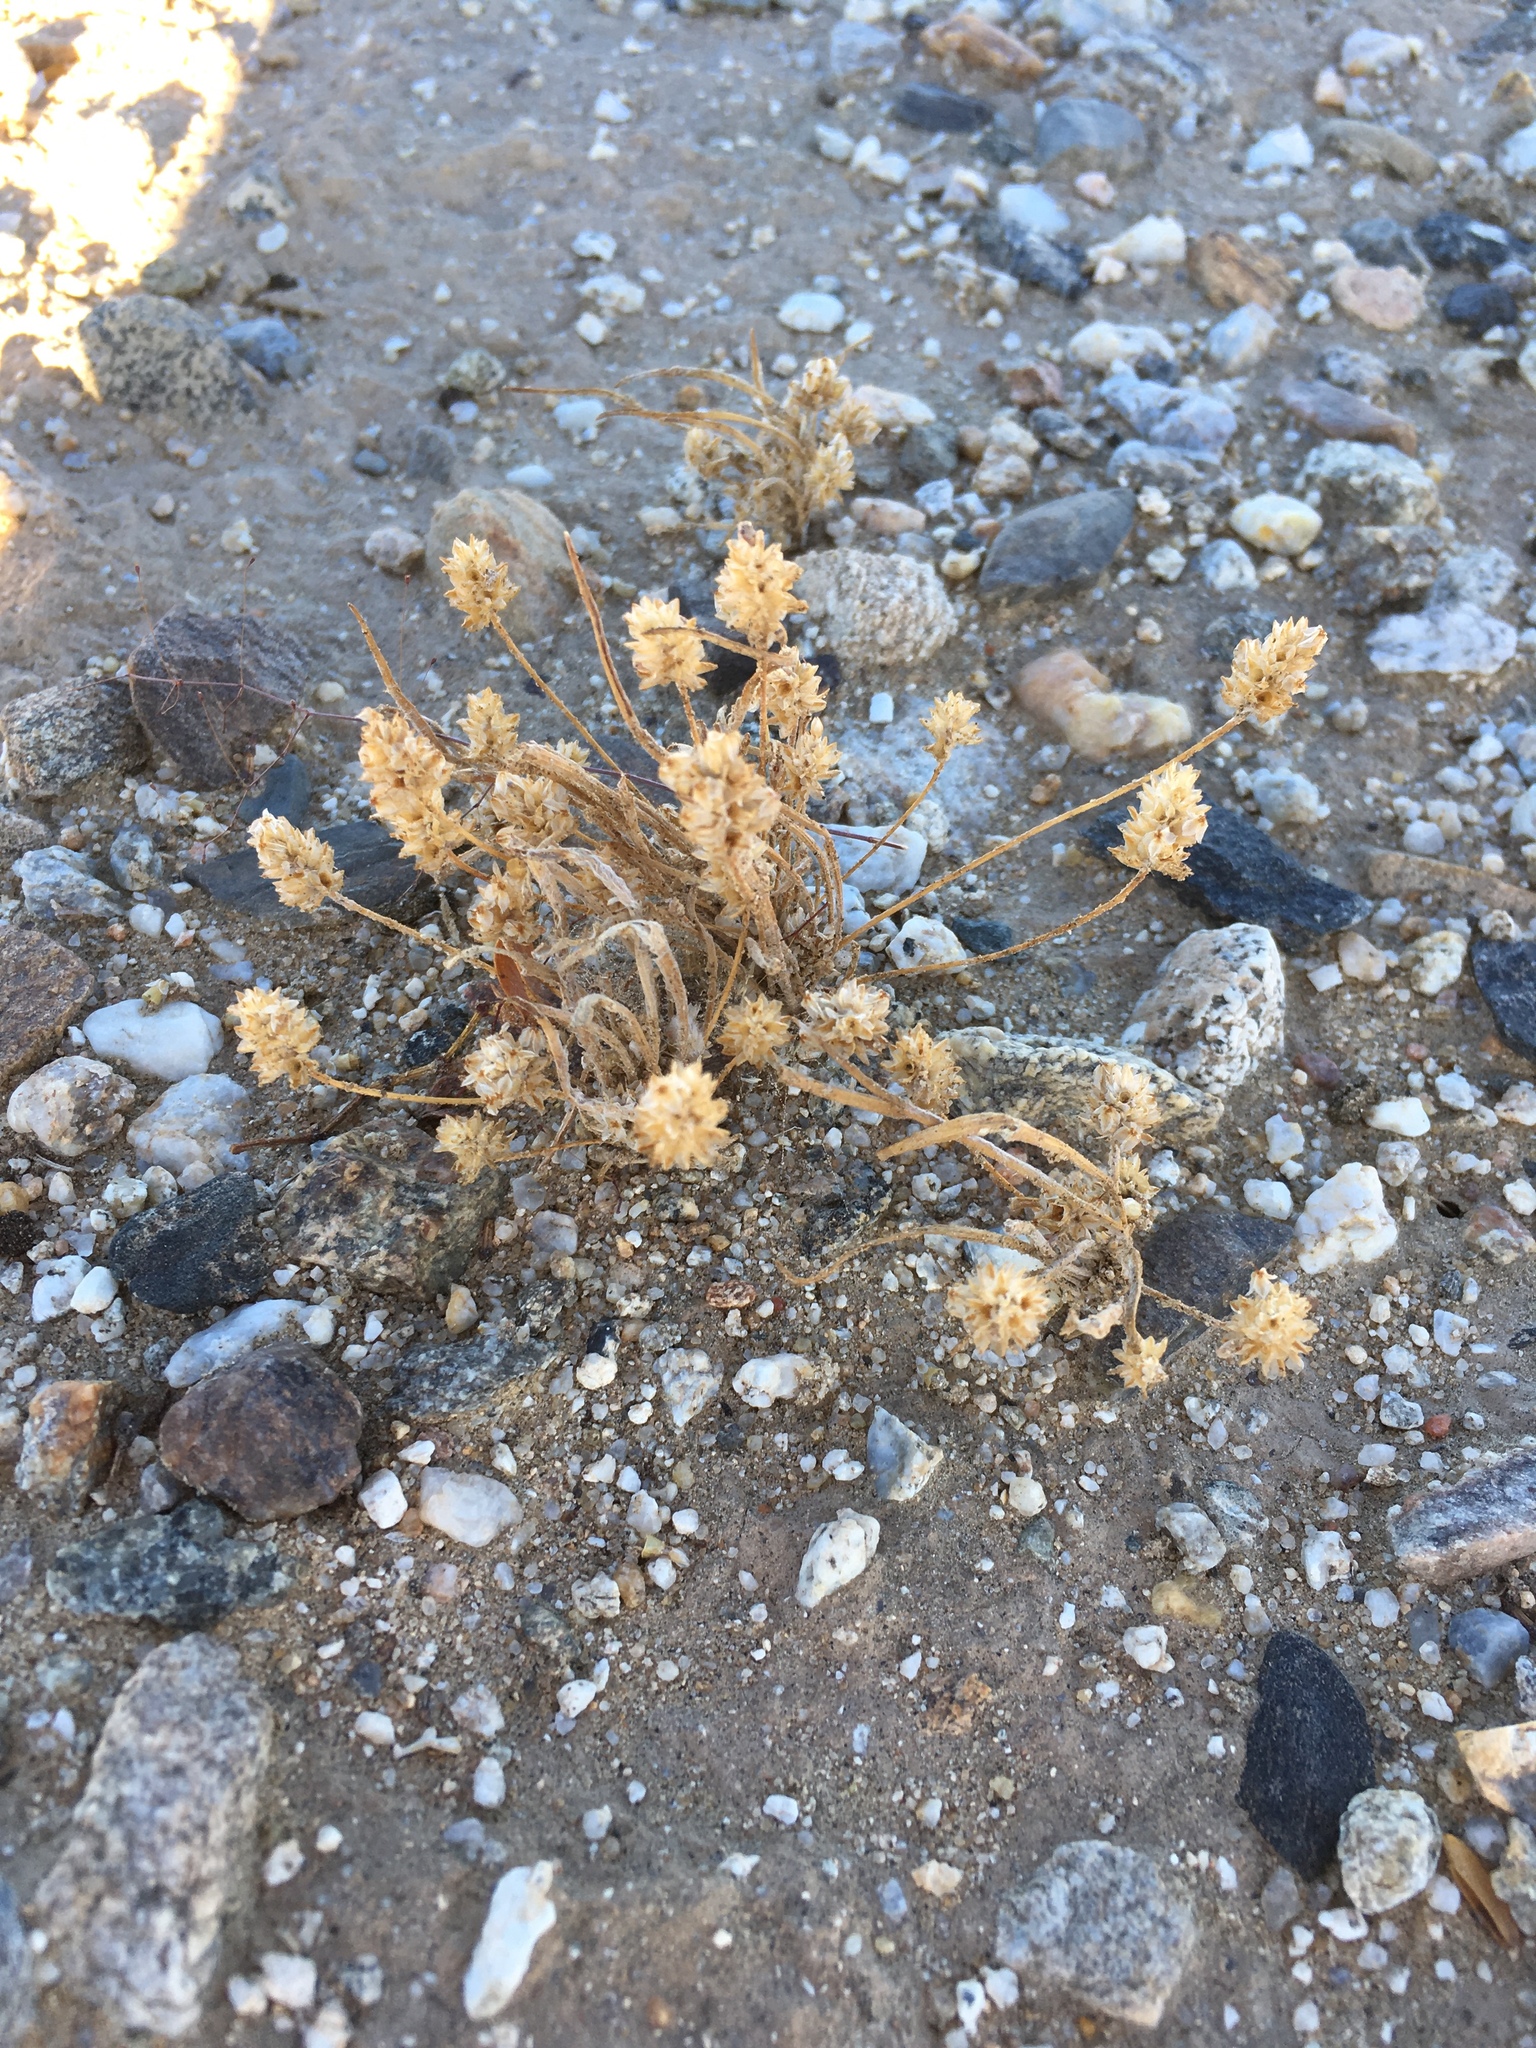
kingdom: Plantae
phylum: Tracheophyta
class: Magnoliopsida
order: Lamiales
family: Plantaginaceae
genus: Plantago
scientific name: Plantago ovata
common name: Blond plantain
